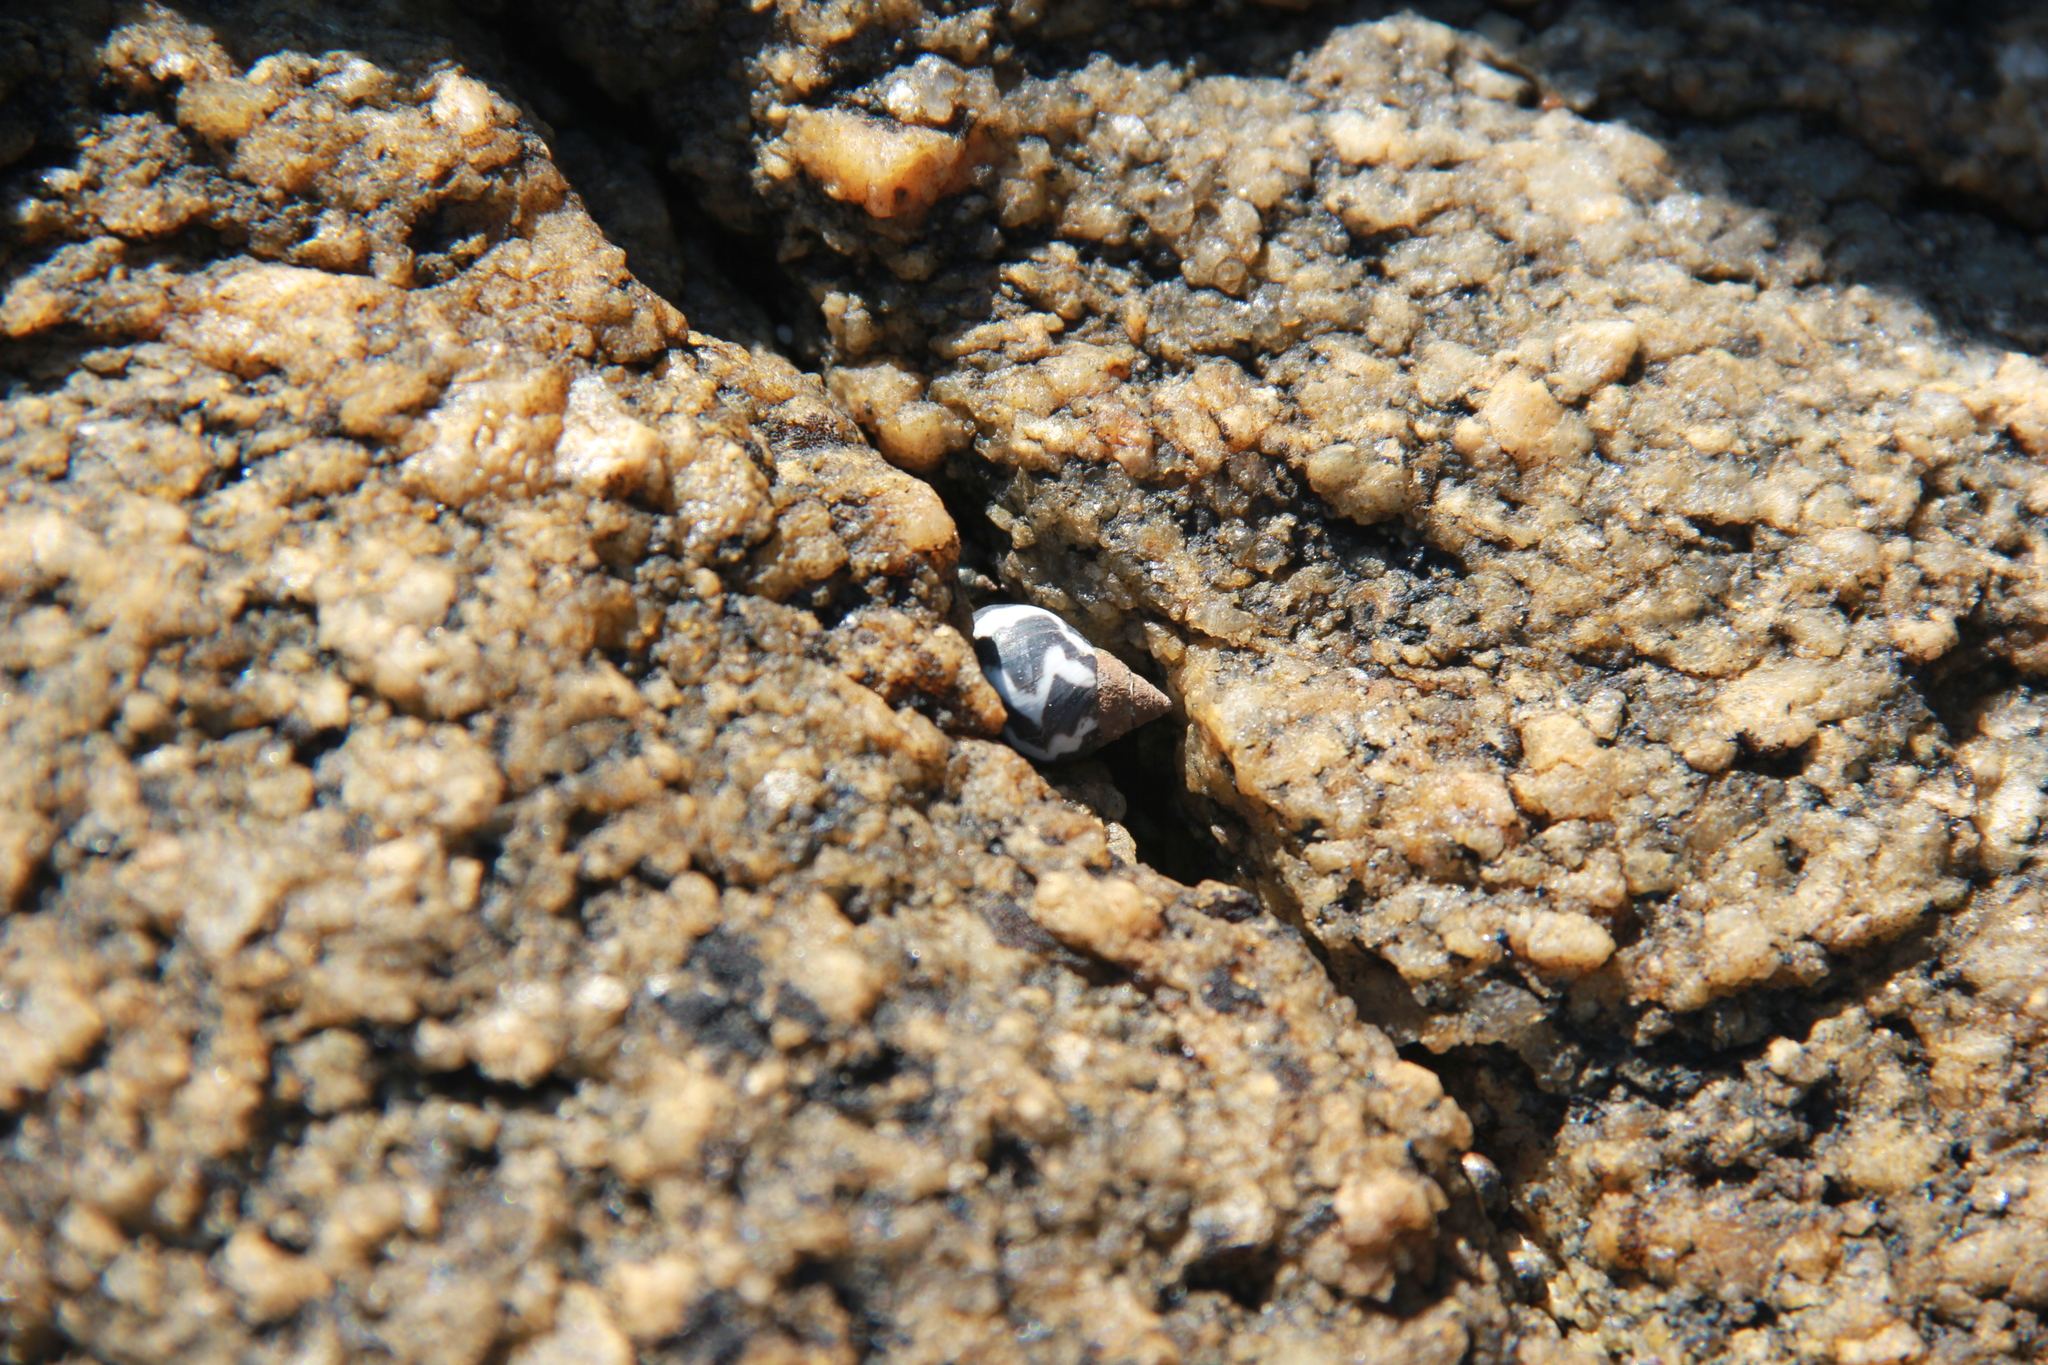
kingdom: Animalia
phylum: Mollusca
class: Gastropoda
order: Littorinimorpha
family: Littorinidae
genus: Echinolittorina
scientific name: Echinolittorina peruviana
